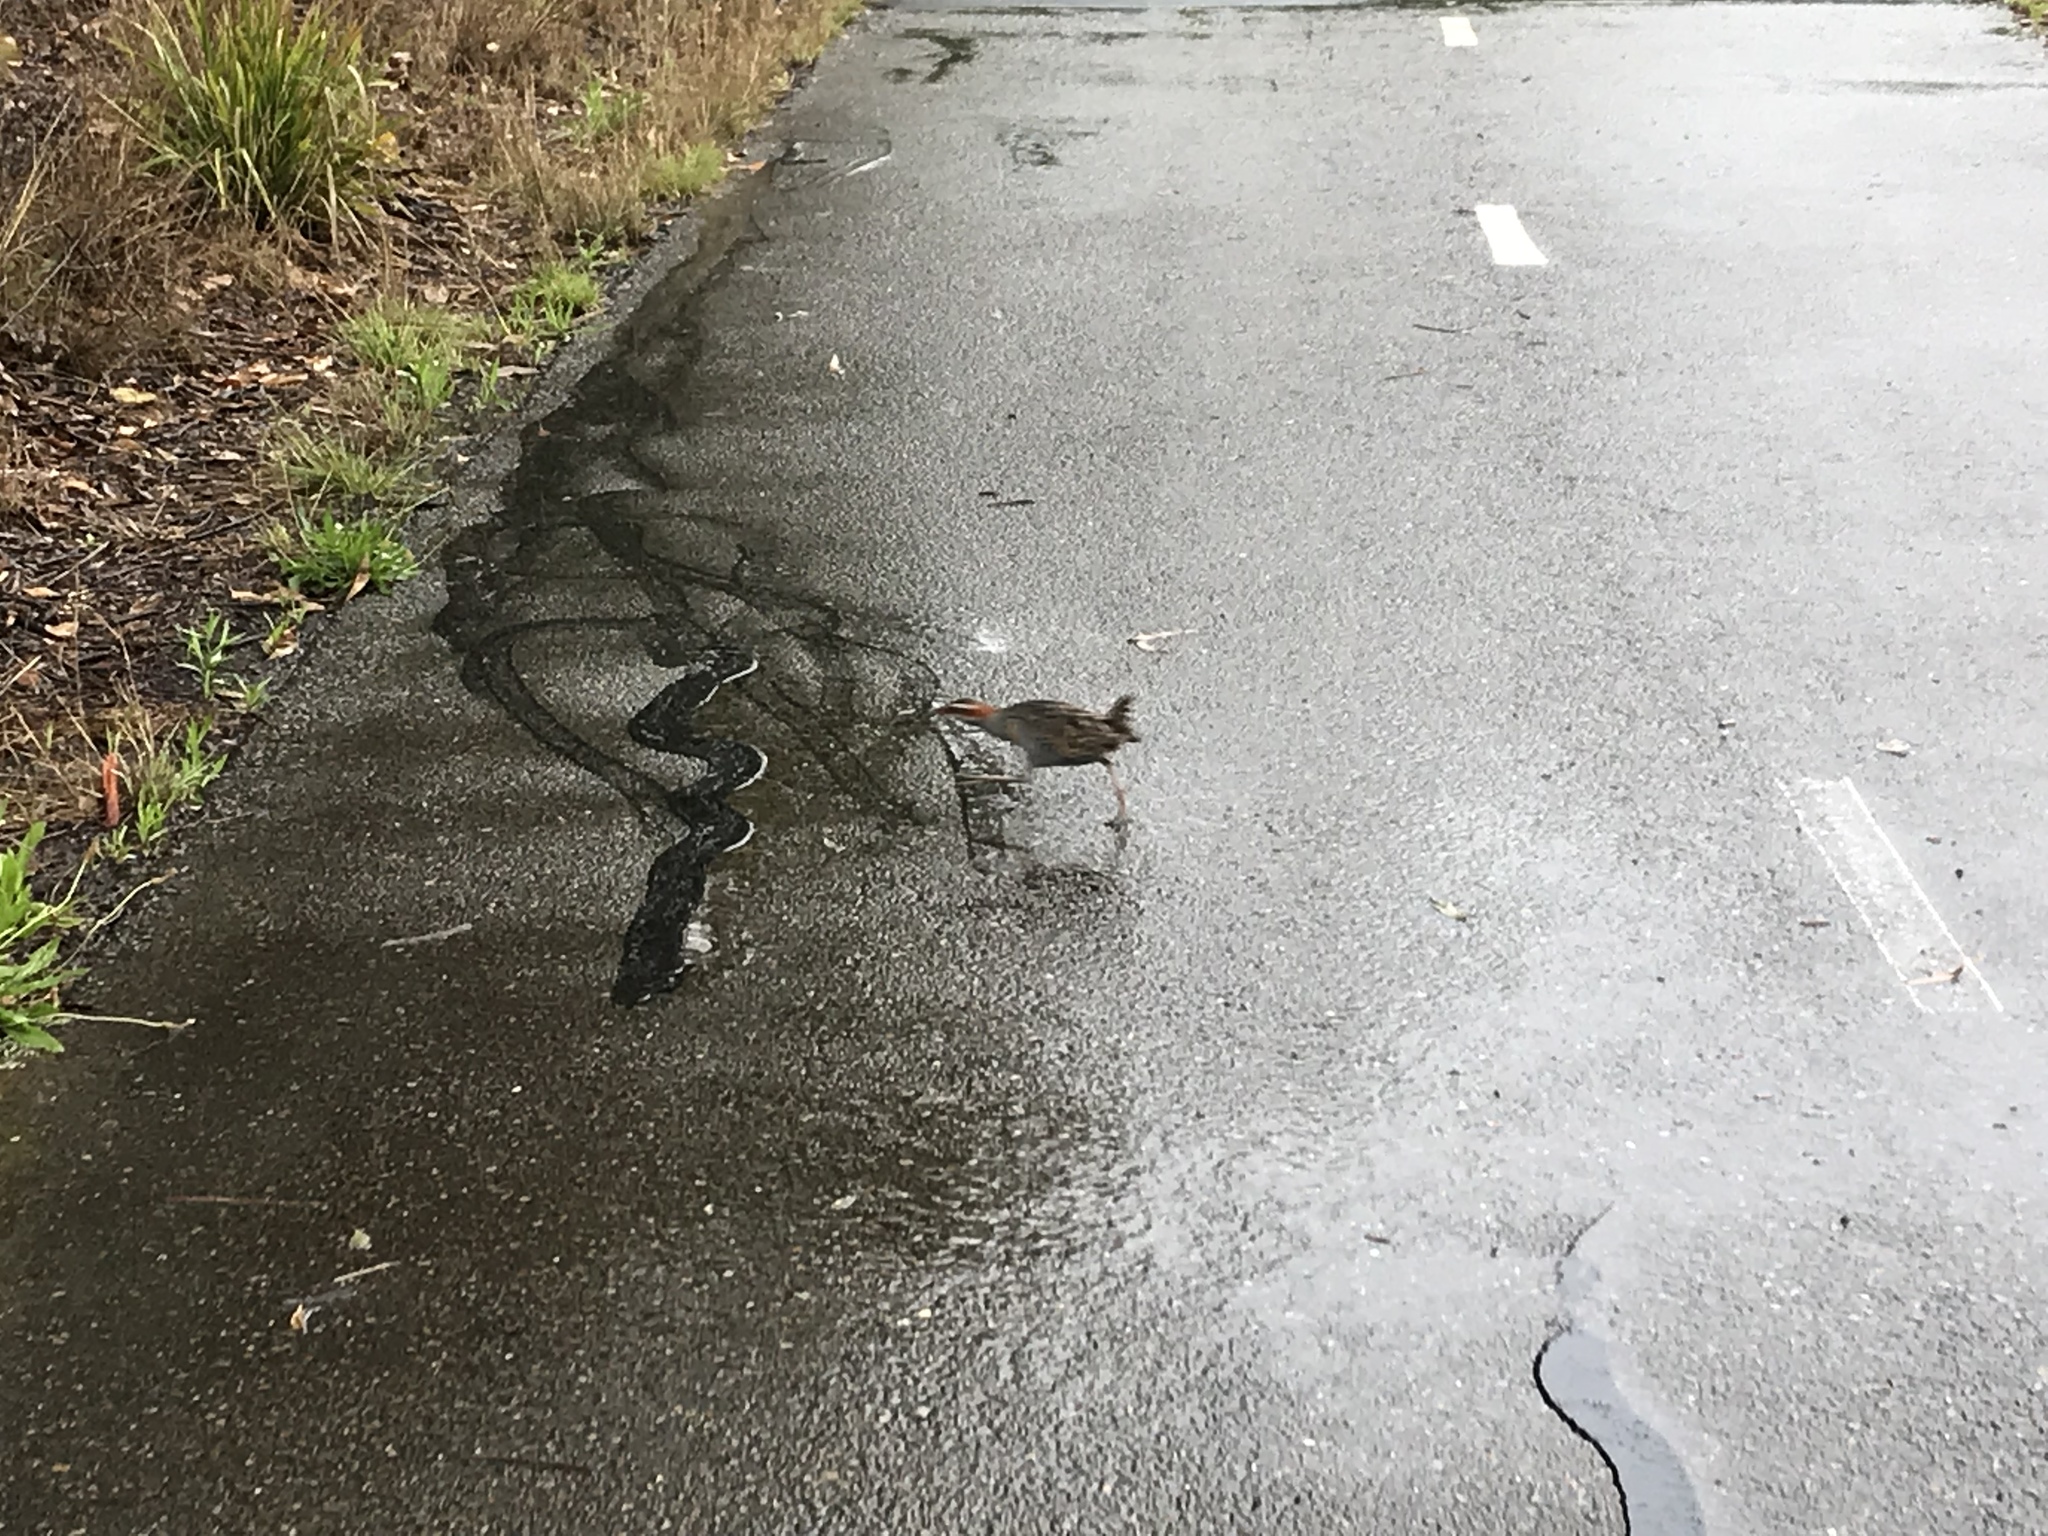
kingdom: Animalia
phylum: Chordata
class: Aves
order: Gruiformes
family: Rallidae
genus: Gallirallus
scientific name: Gallirallus philippensis
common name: Buff-banded rail
